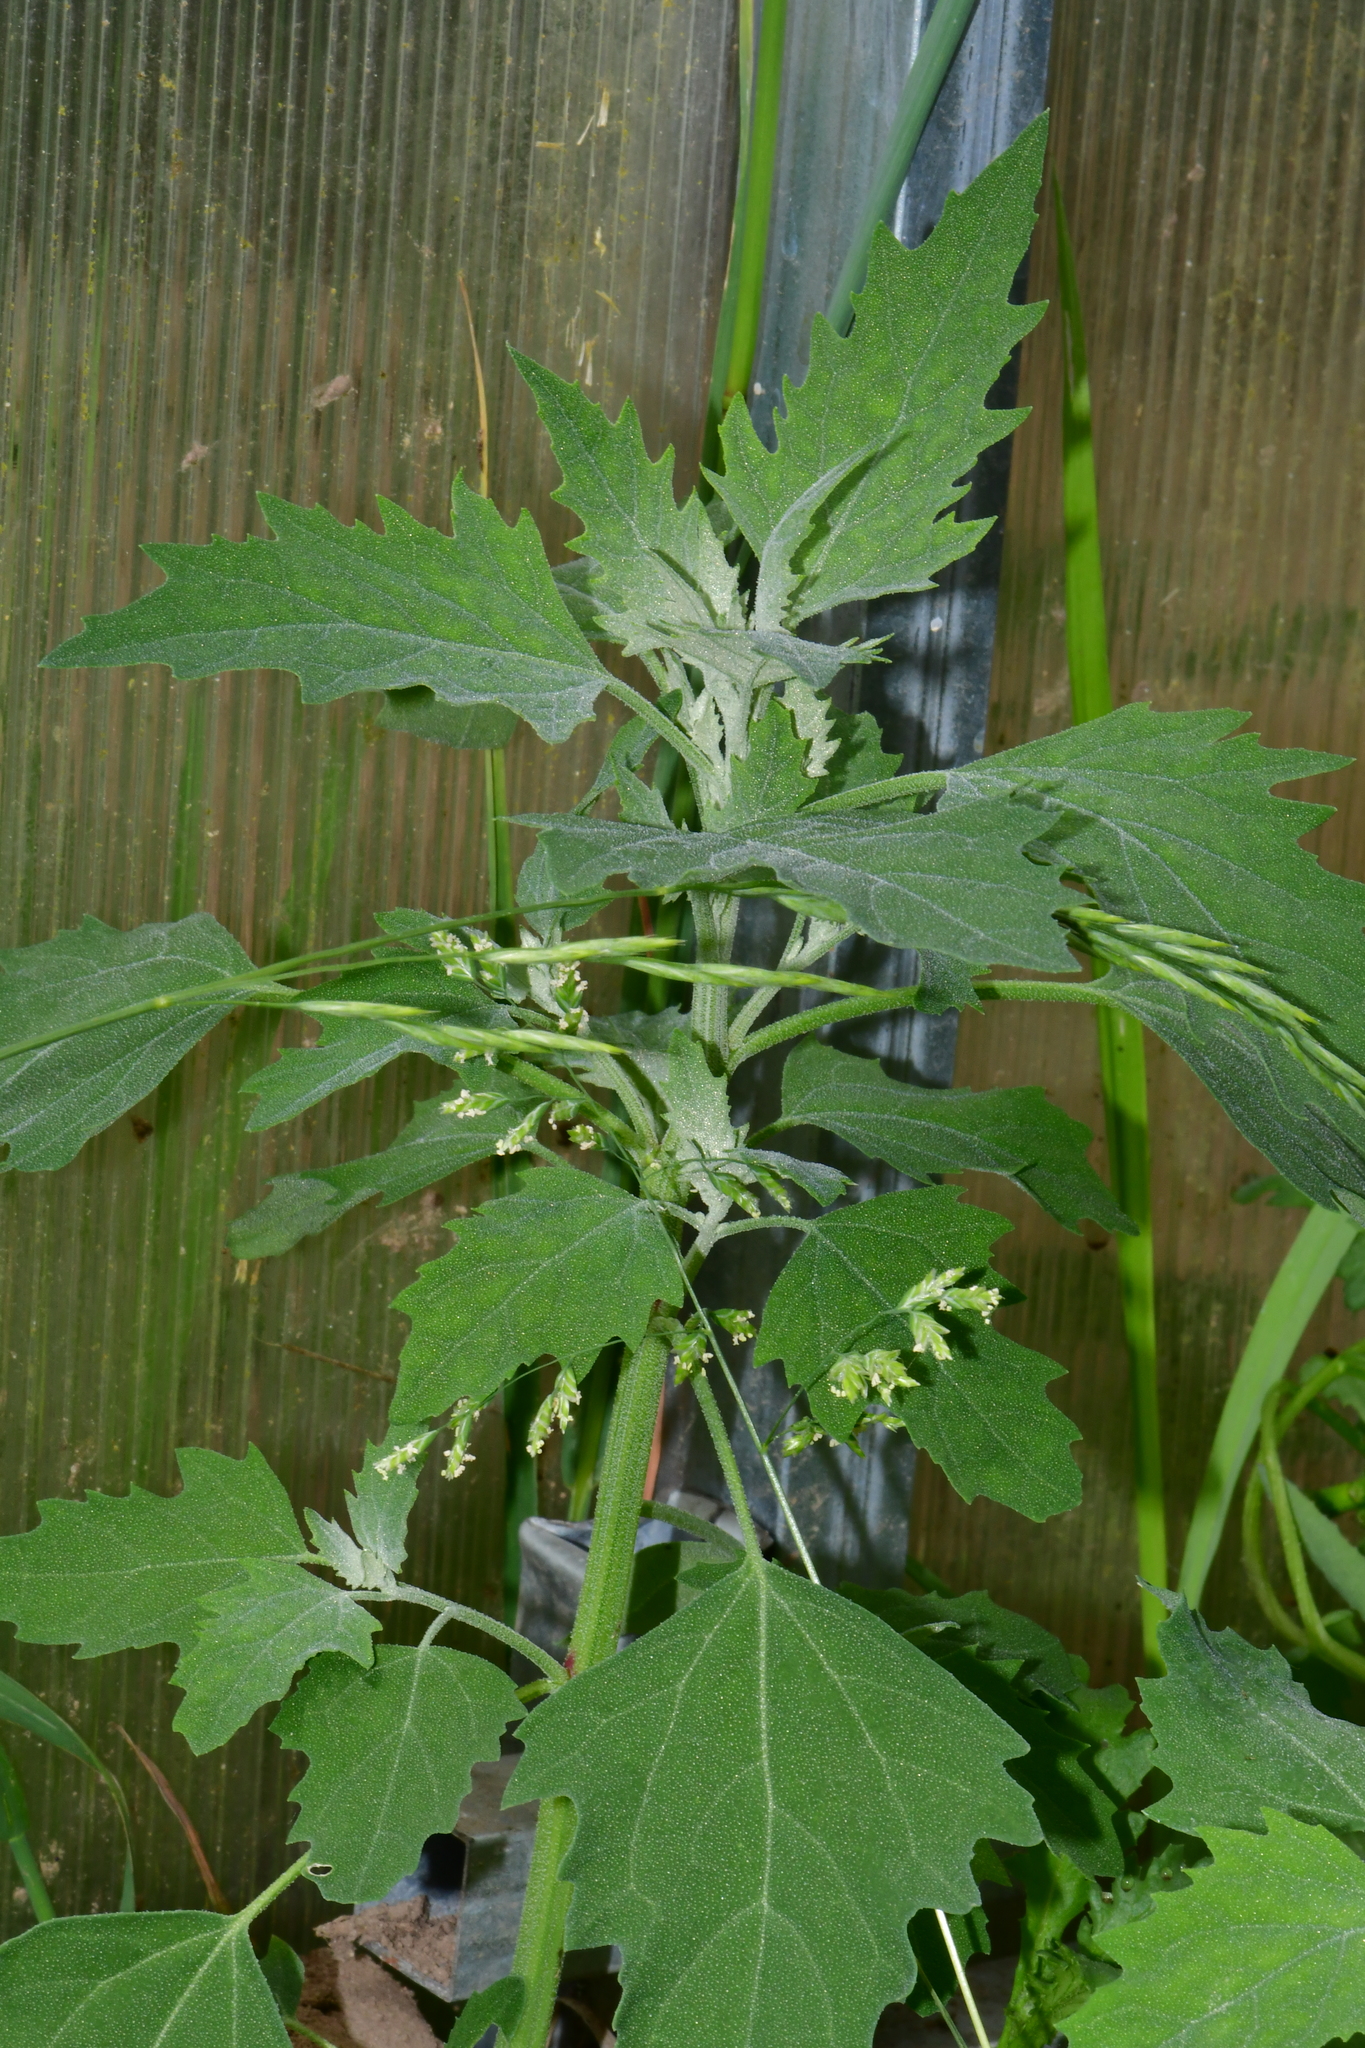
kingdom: Plantae
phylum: Tracheophyta
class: Magnoliopsida
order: Caryophyllales
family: Amaranthaceae
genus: Chenopodium
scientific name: Chenopodium album
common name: Fat-hen
